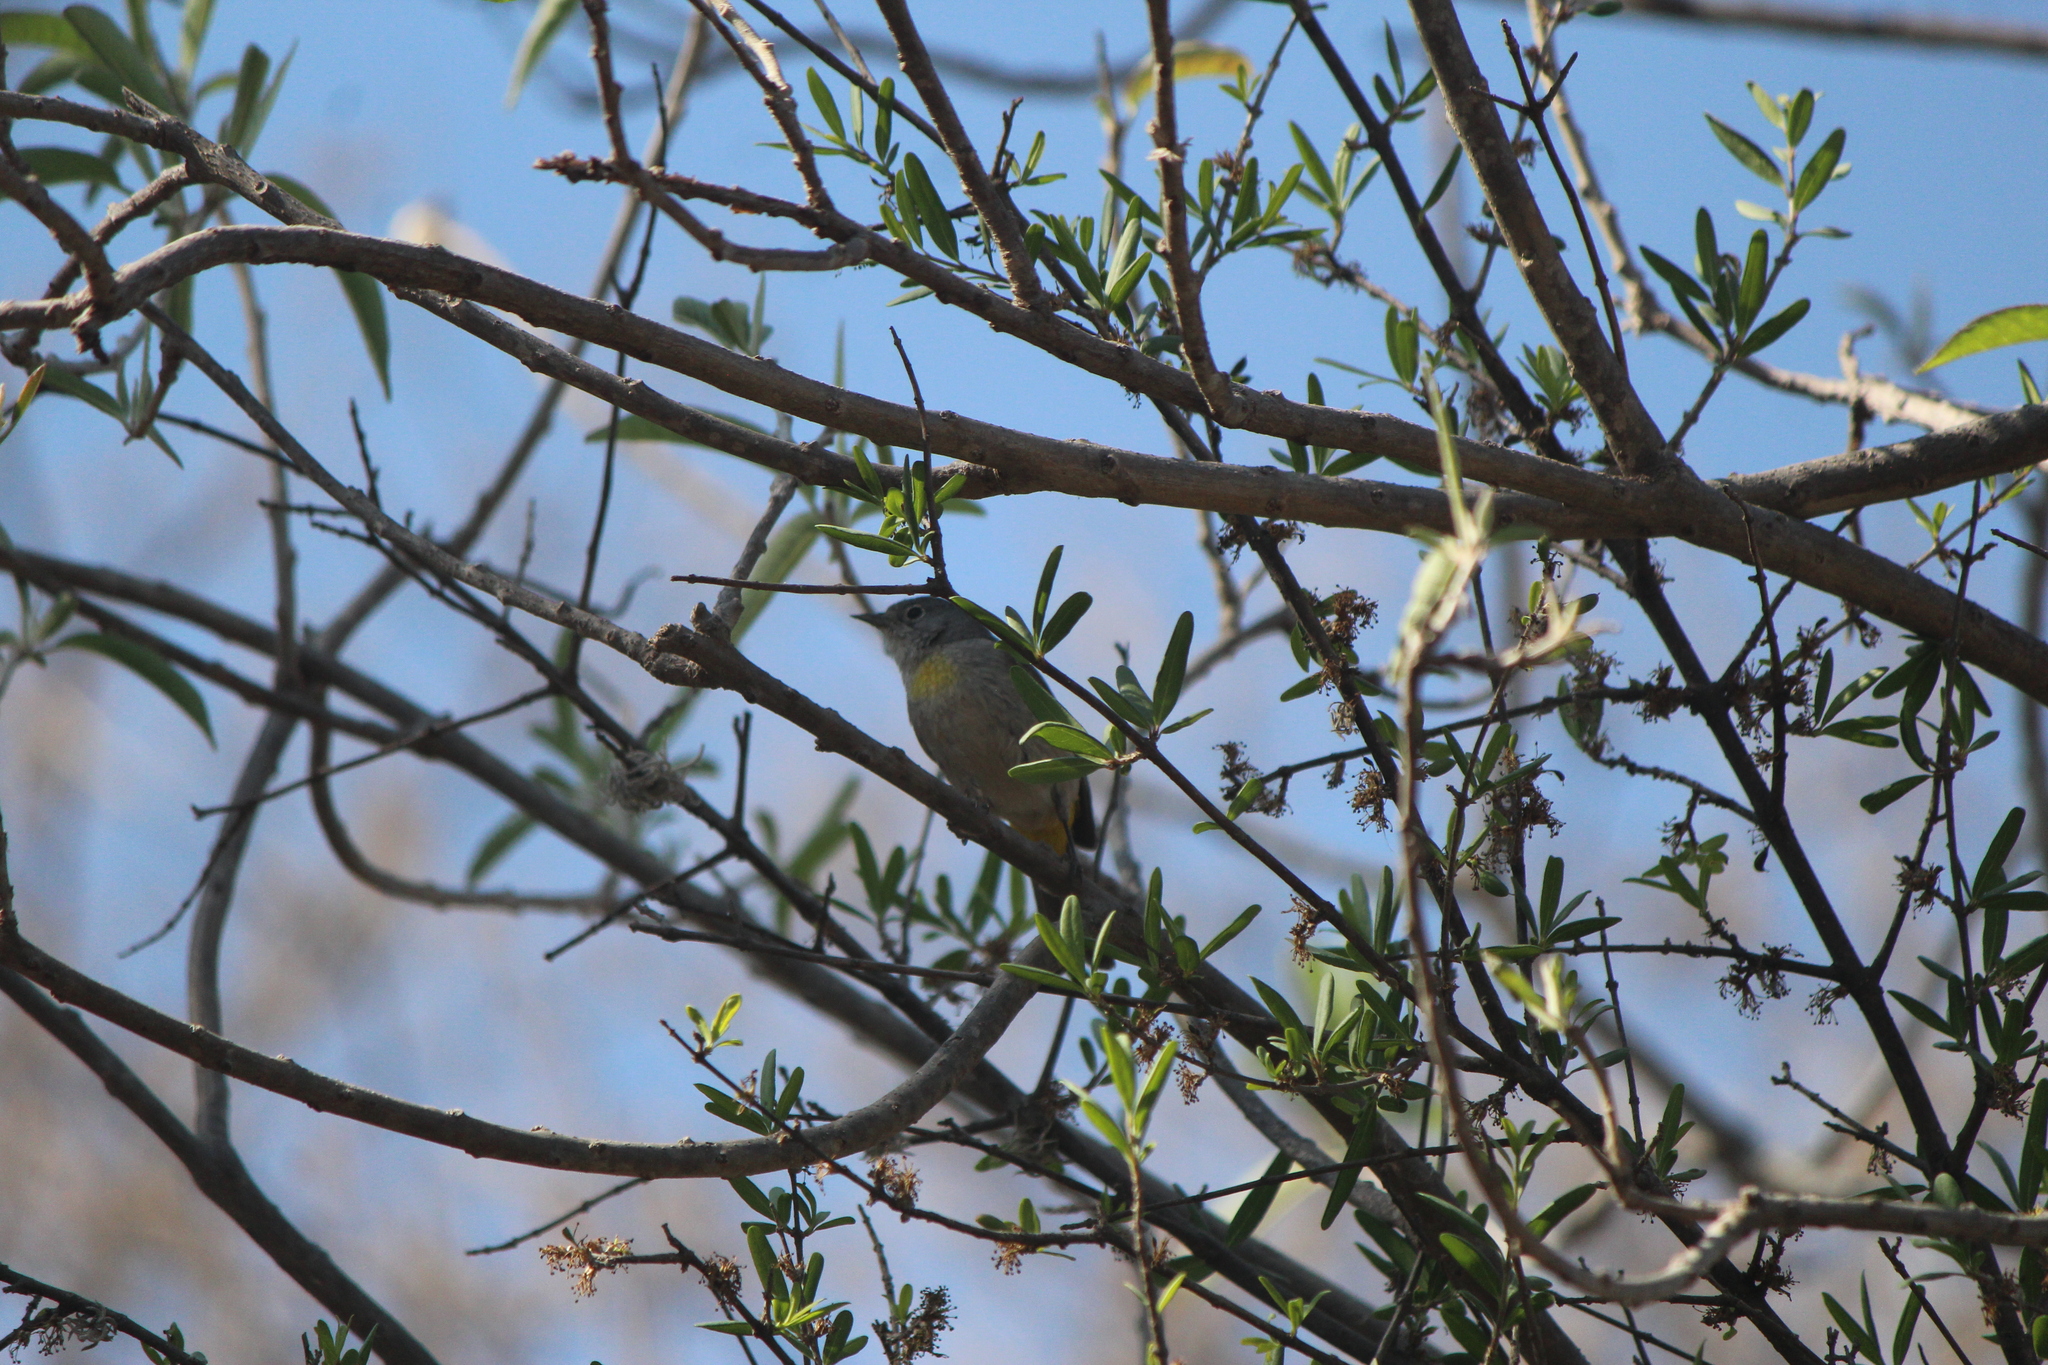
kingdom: Animalia
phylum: Chordata
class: Aves
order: Passeriformes
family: Parulidae
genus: Leiothlypis
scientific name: Leiothlypis virginiae
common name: Virginia's warbler
